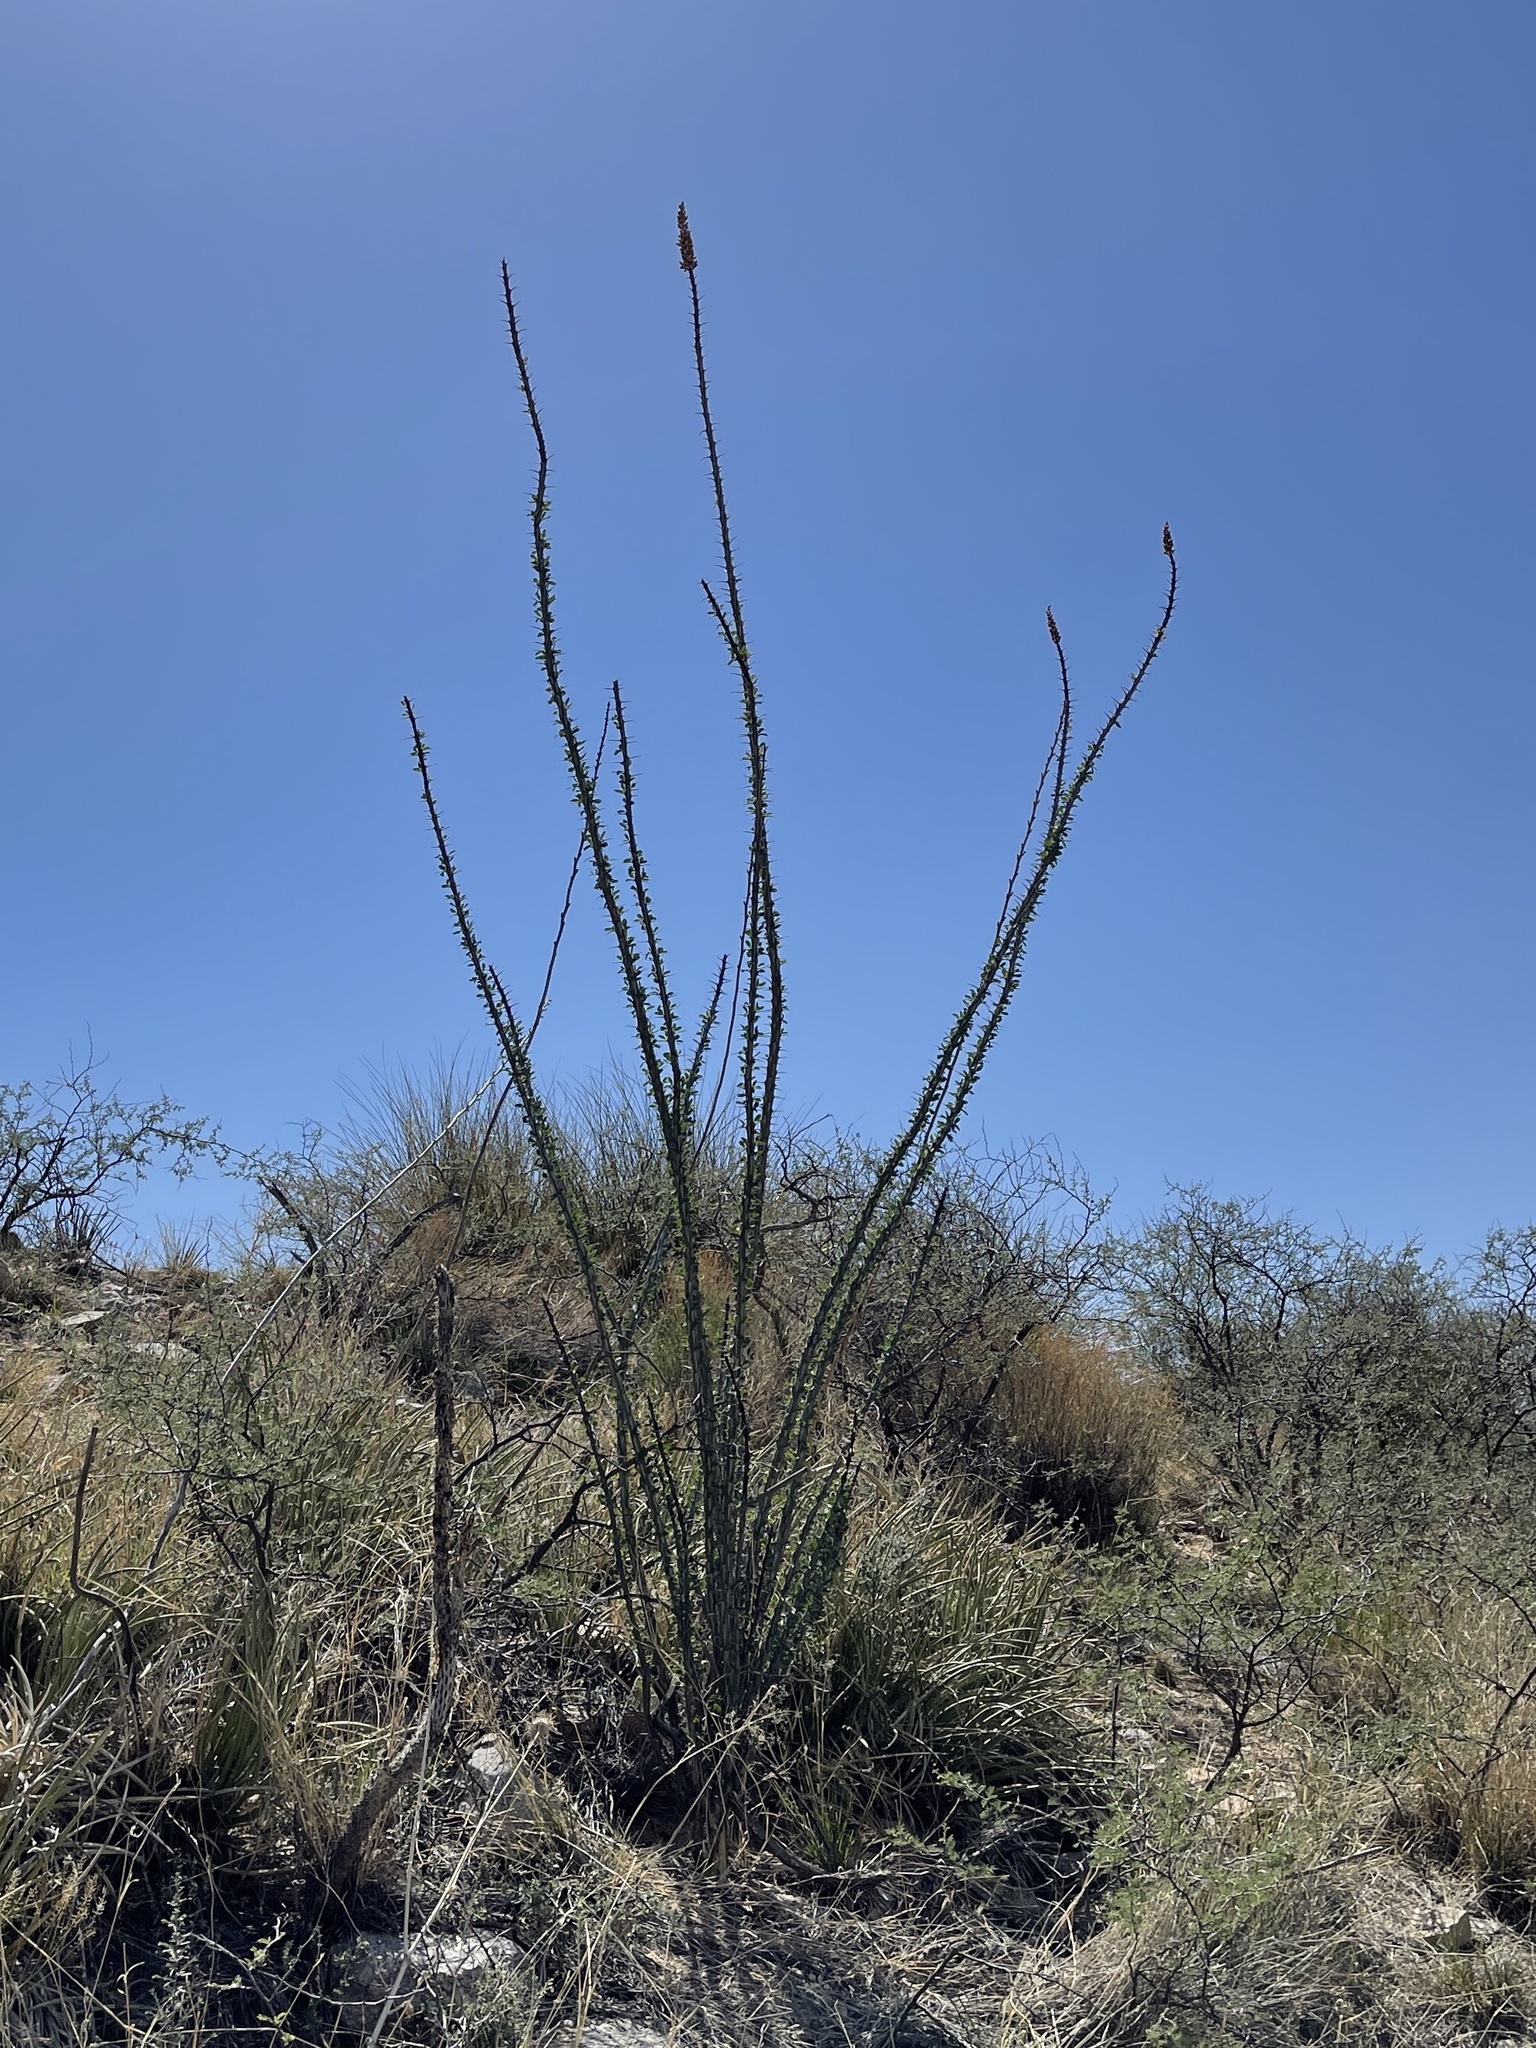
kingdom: Plantae
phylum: Tracheophyta
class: Magnoliopsida
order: Ericales
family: Fouquieriaceae
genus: Fouquieria
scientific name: Fouquieria splendens
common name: Vine-cactus
